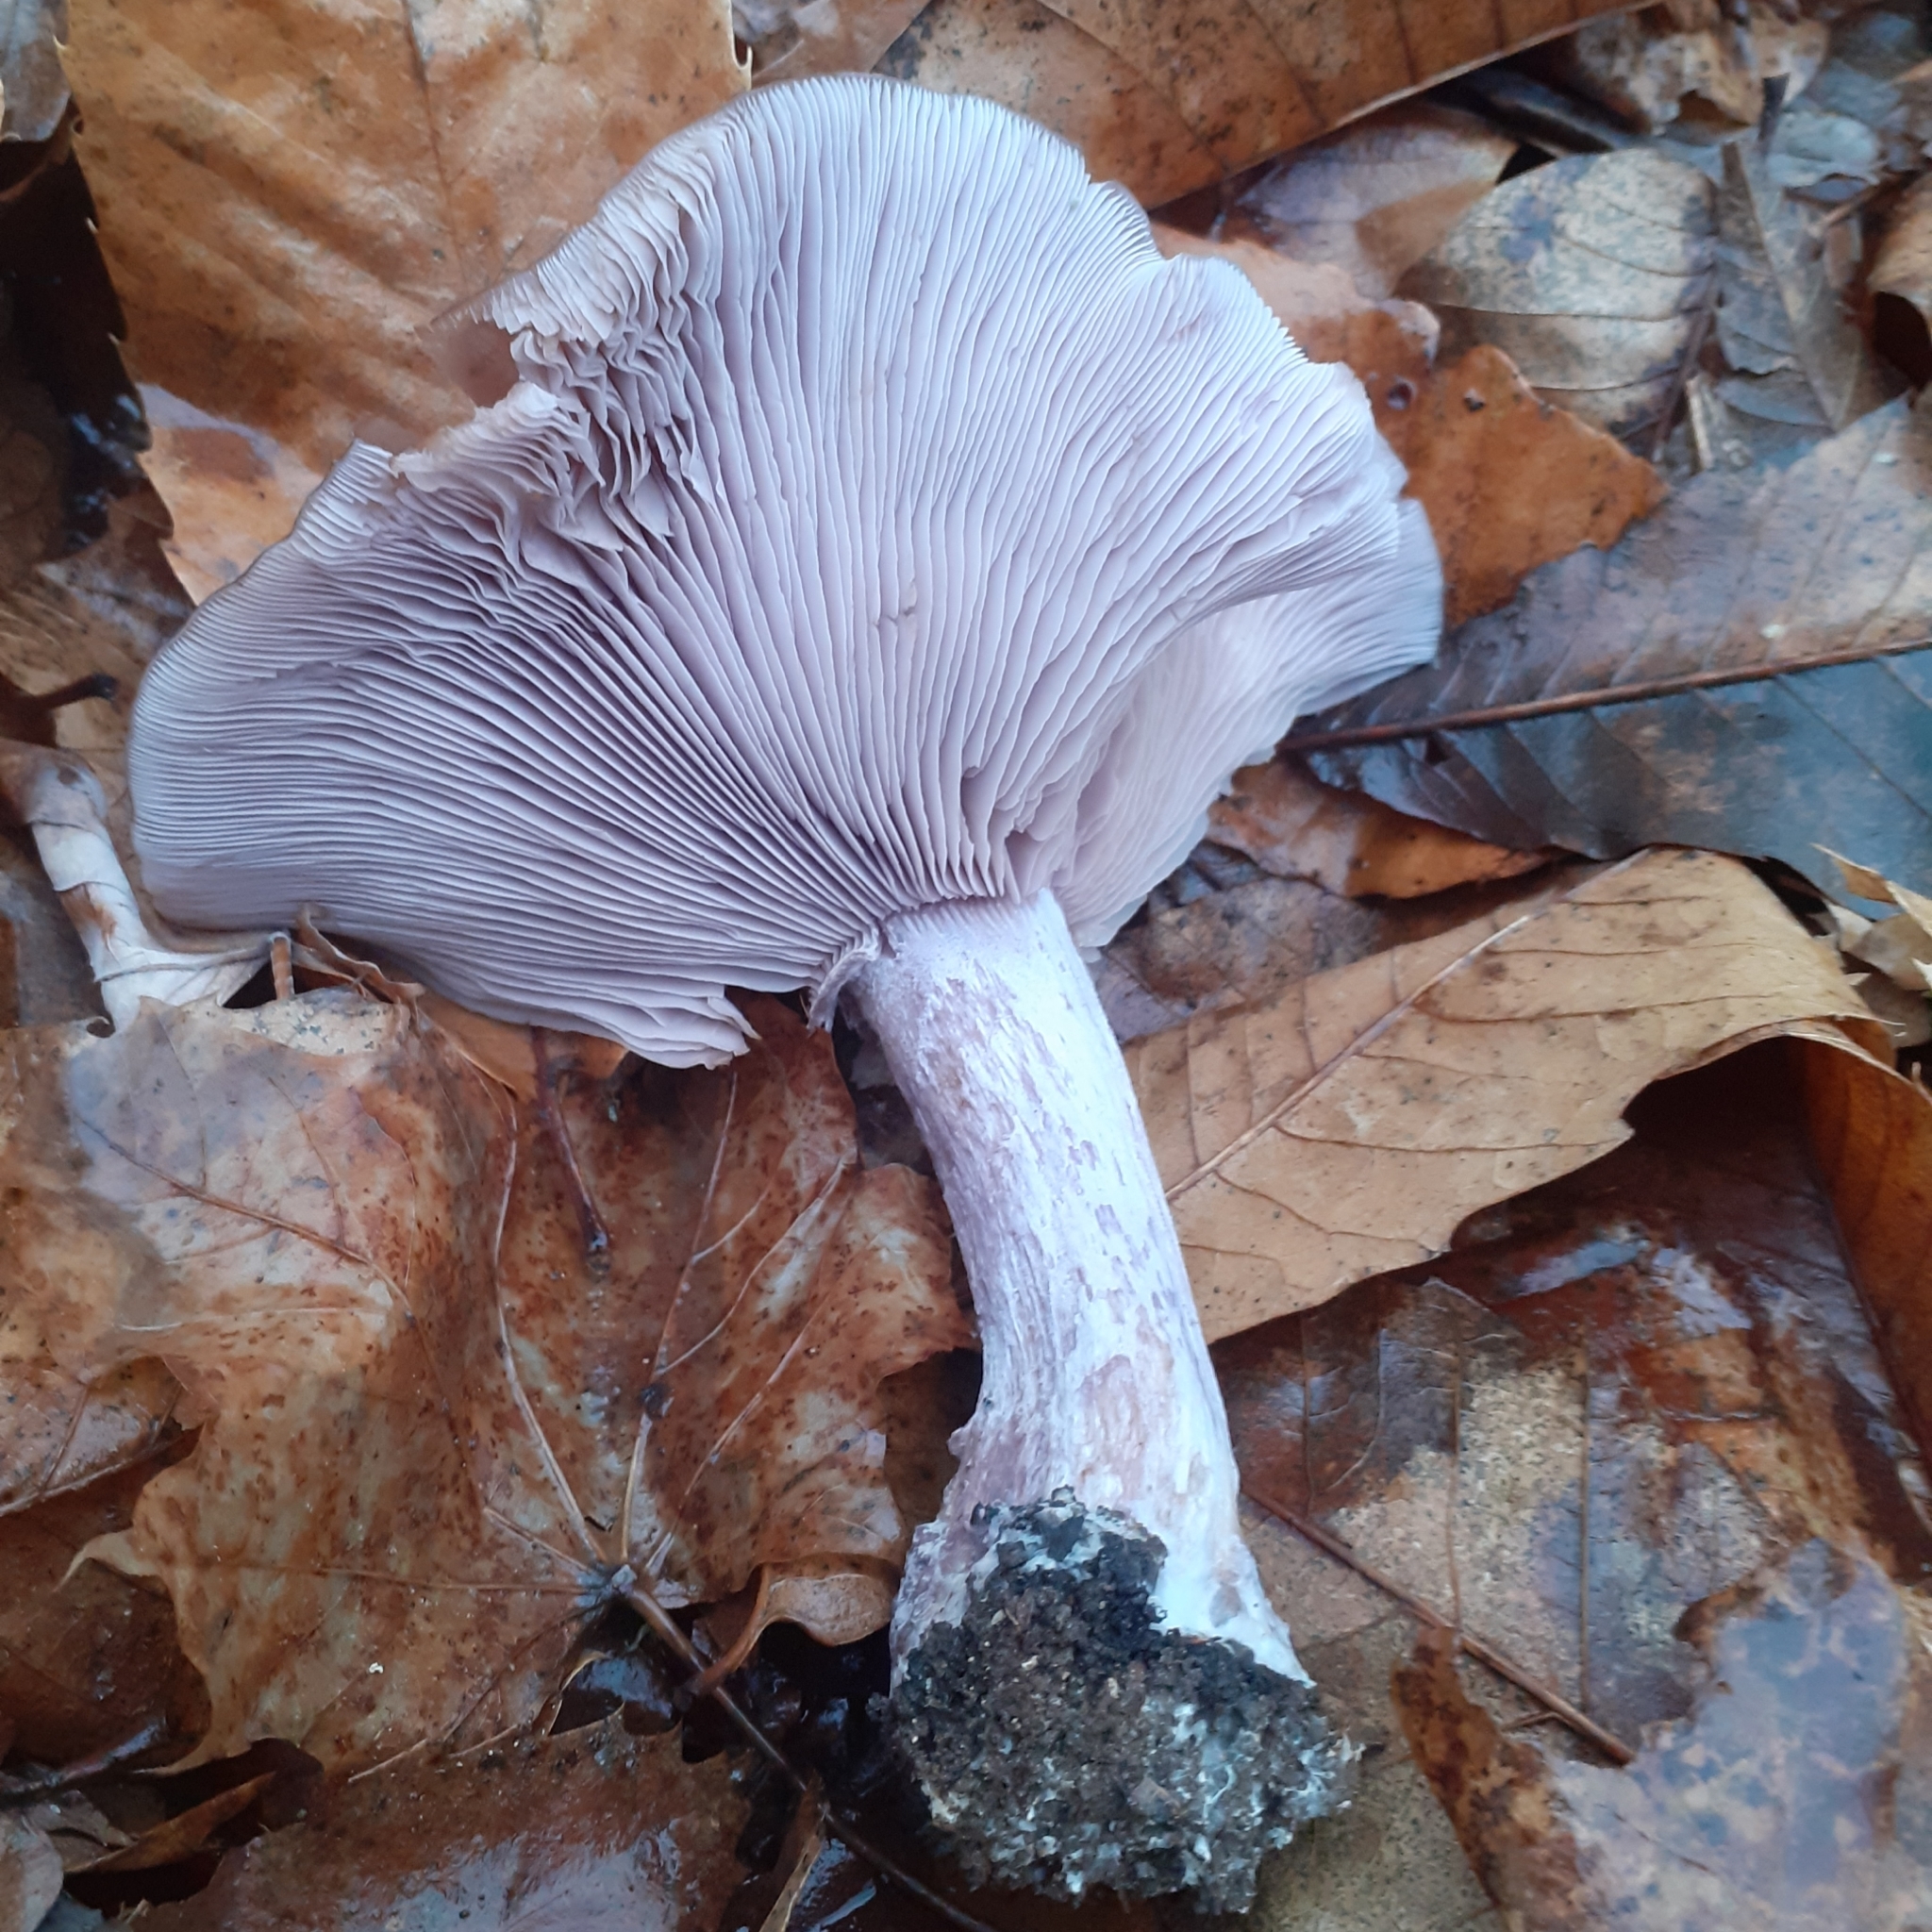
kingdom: Fungi
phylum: Basidiomycota
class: Agaricomycetes
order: Agaricales
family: Tricholomataceae
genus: Collybia
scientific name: Collybia
